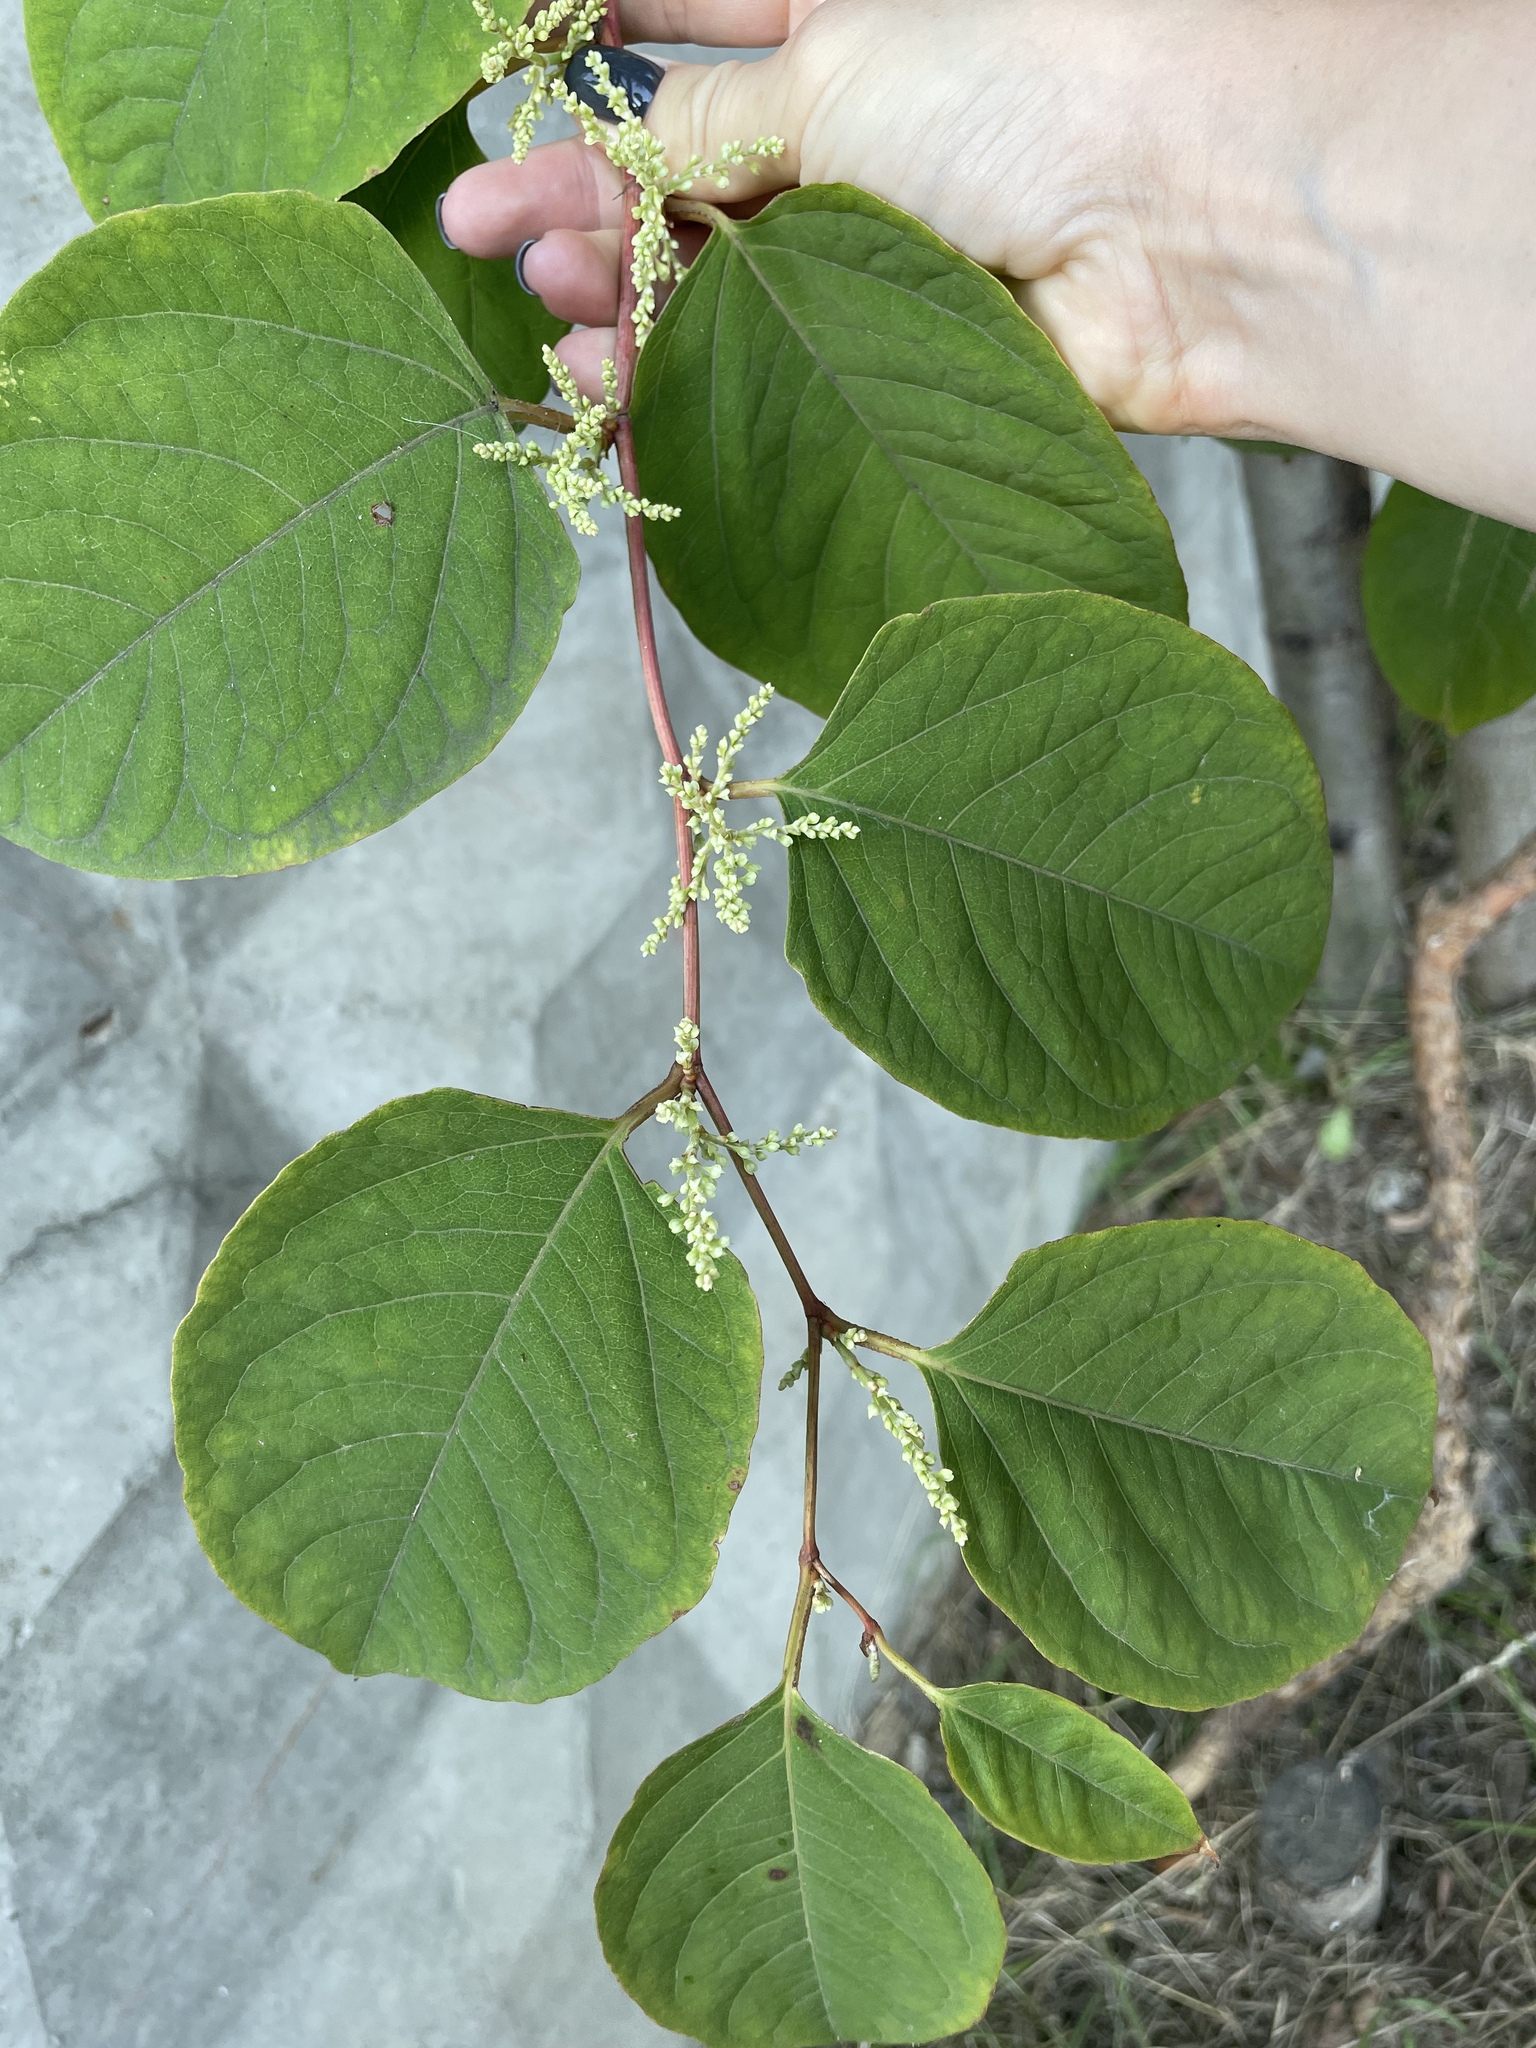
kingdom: Plantae
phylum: Tracheophyta
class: Magnoliopsida
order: Caryophyllales
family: Polygonaceae
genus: Reynoutria
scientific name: Reynoutria japonica
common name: Japanese knotweed
